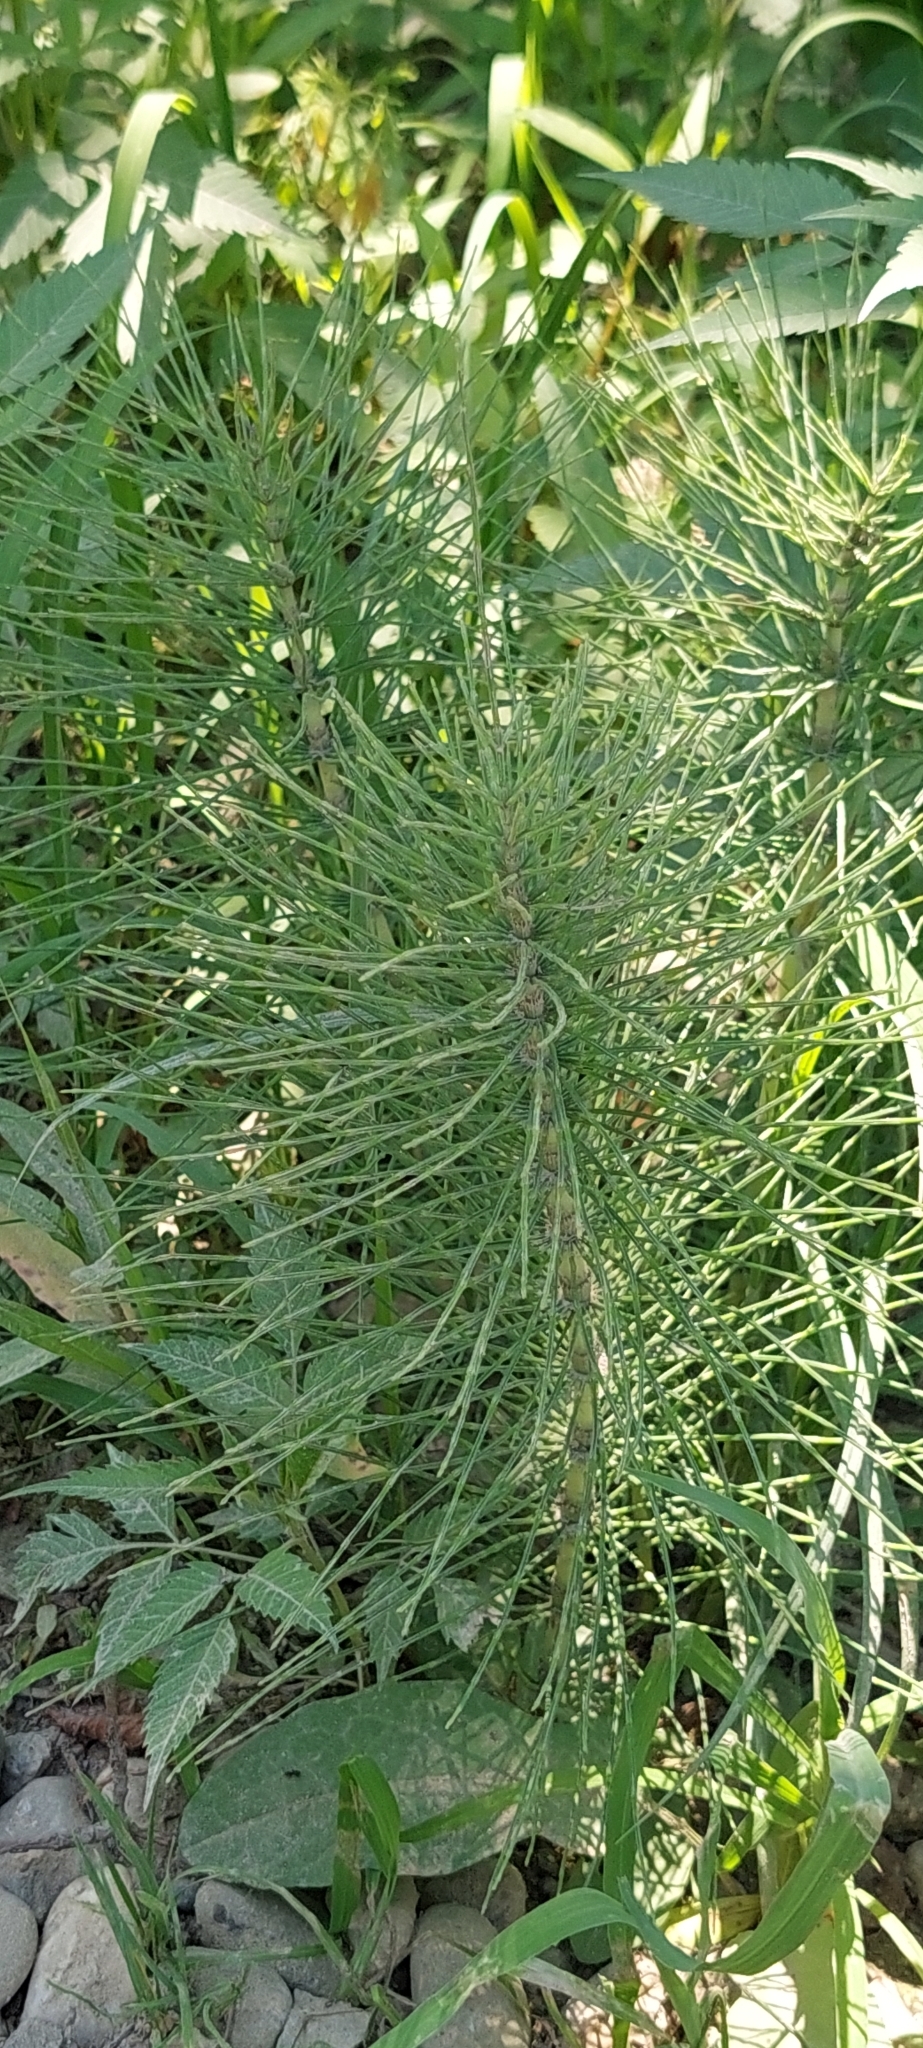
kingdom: Plantae
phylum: Tracheophyta
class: Polypodiopsida
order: Equisetales
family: Equisetaceae
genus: Equisetum
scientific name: Equisetum telmateia
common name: Great horsetail
